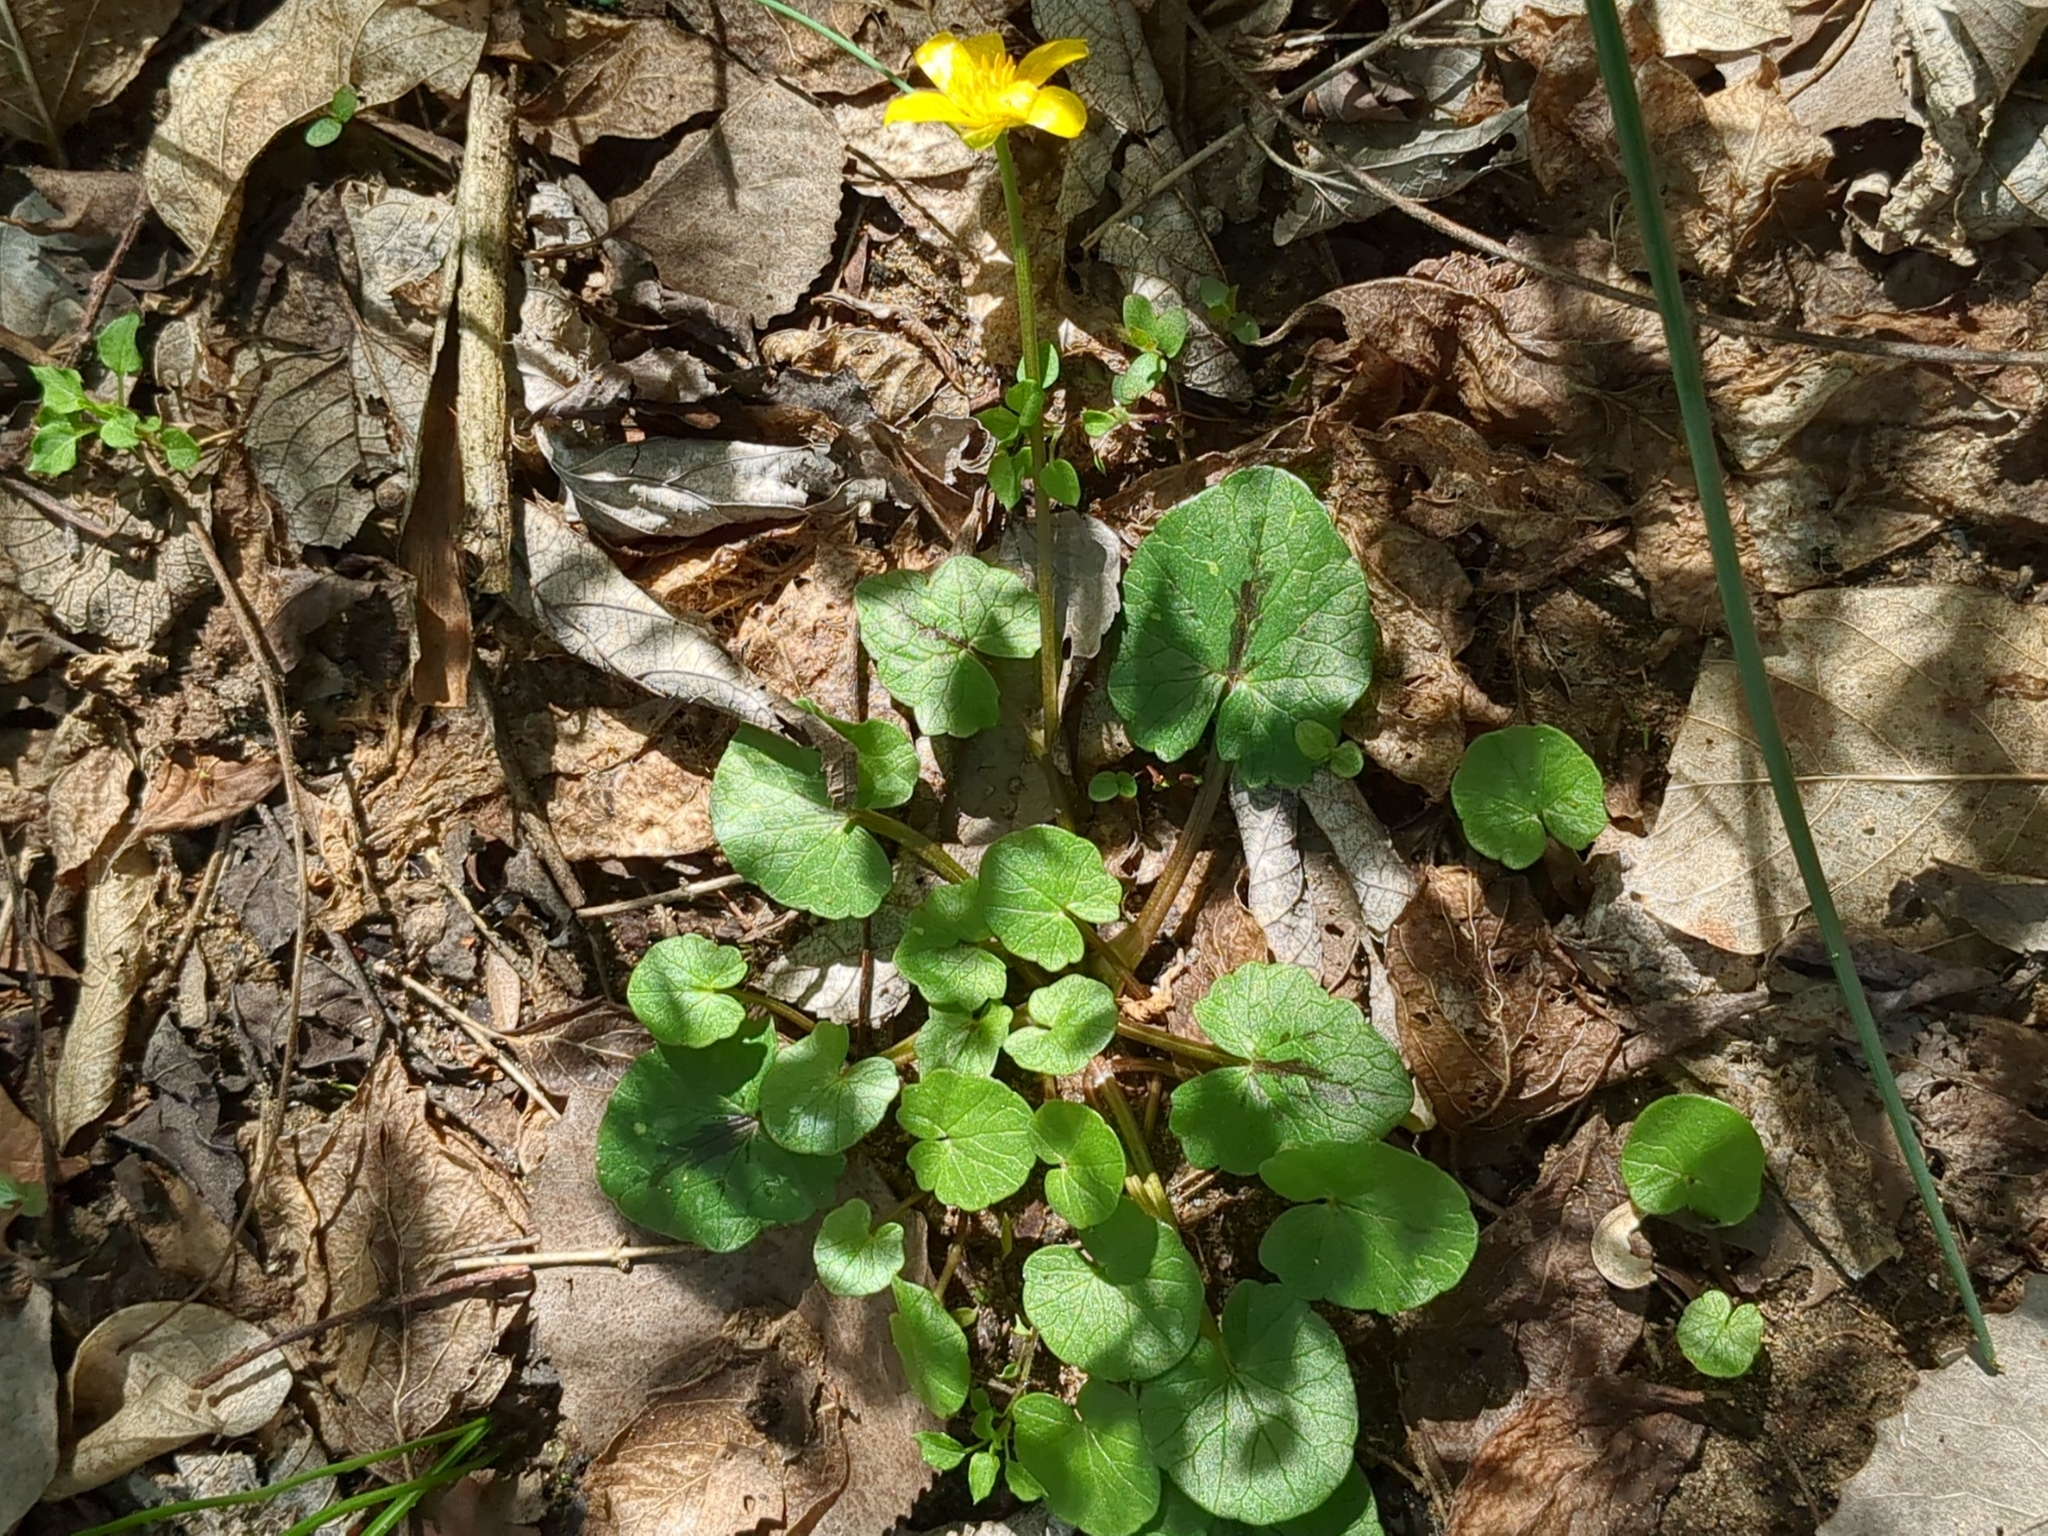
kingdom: Plantae
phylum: Tracheophyta
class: Magnoliopsida
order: Ranunculales
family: Ranunculaceae
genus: Ficaria
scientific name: Ficaria verna
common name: Lesser celandine
